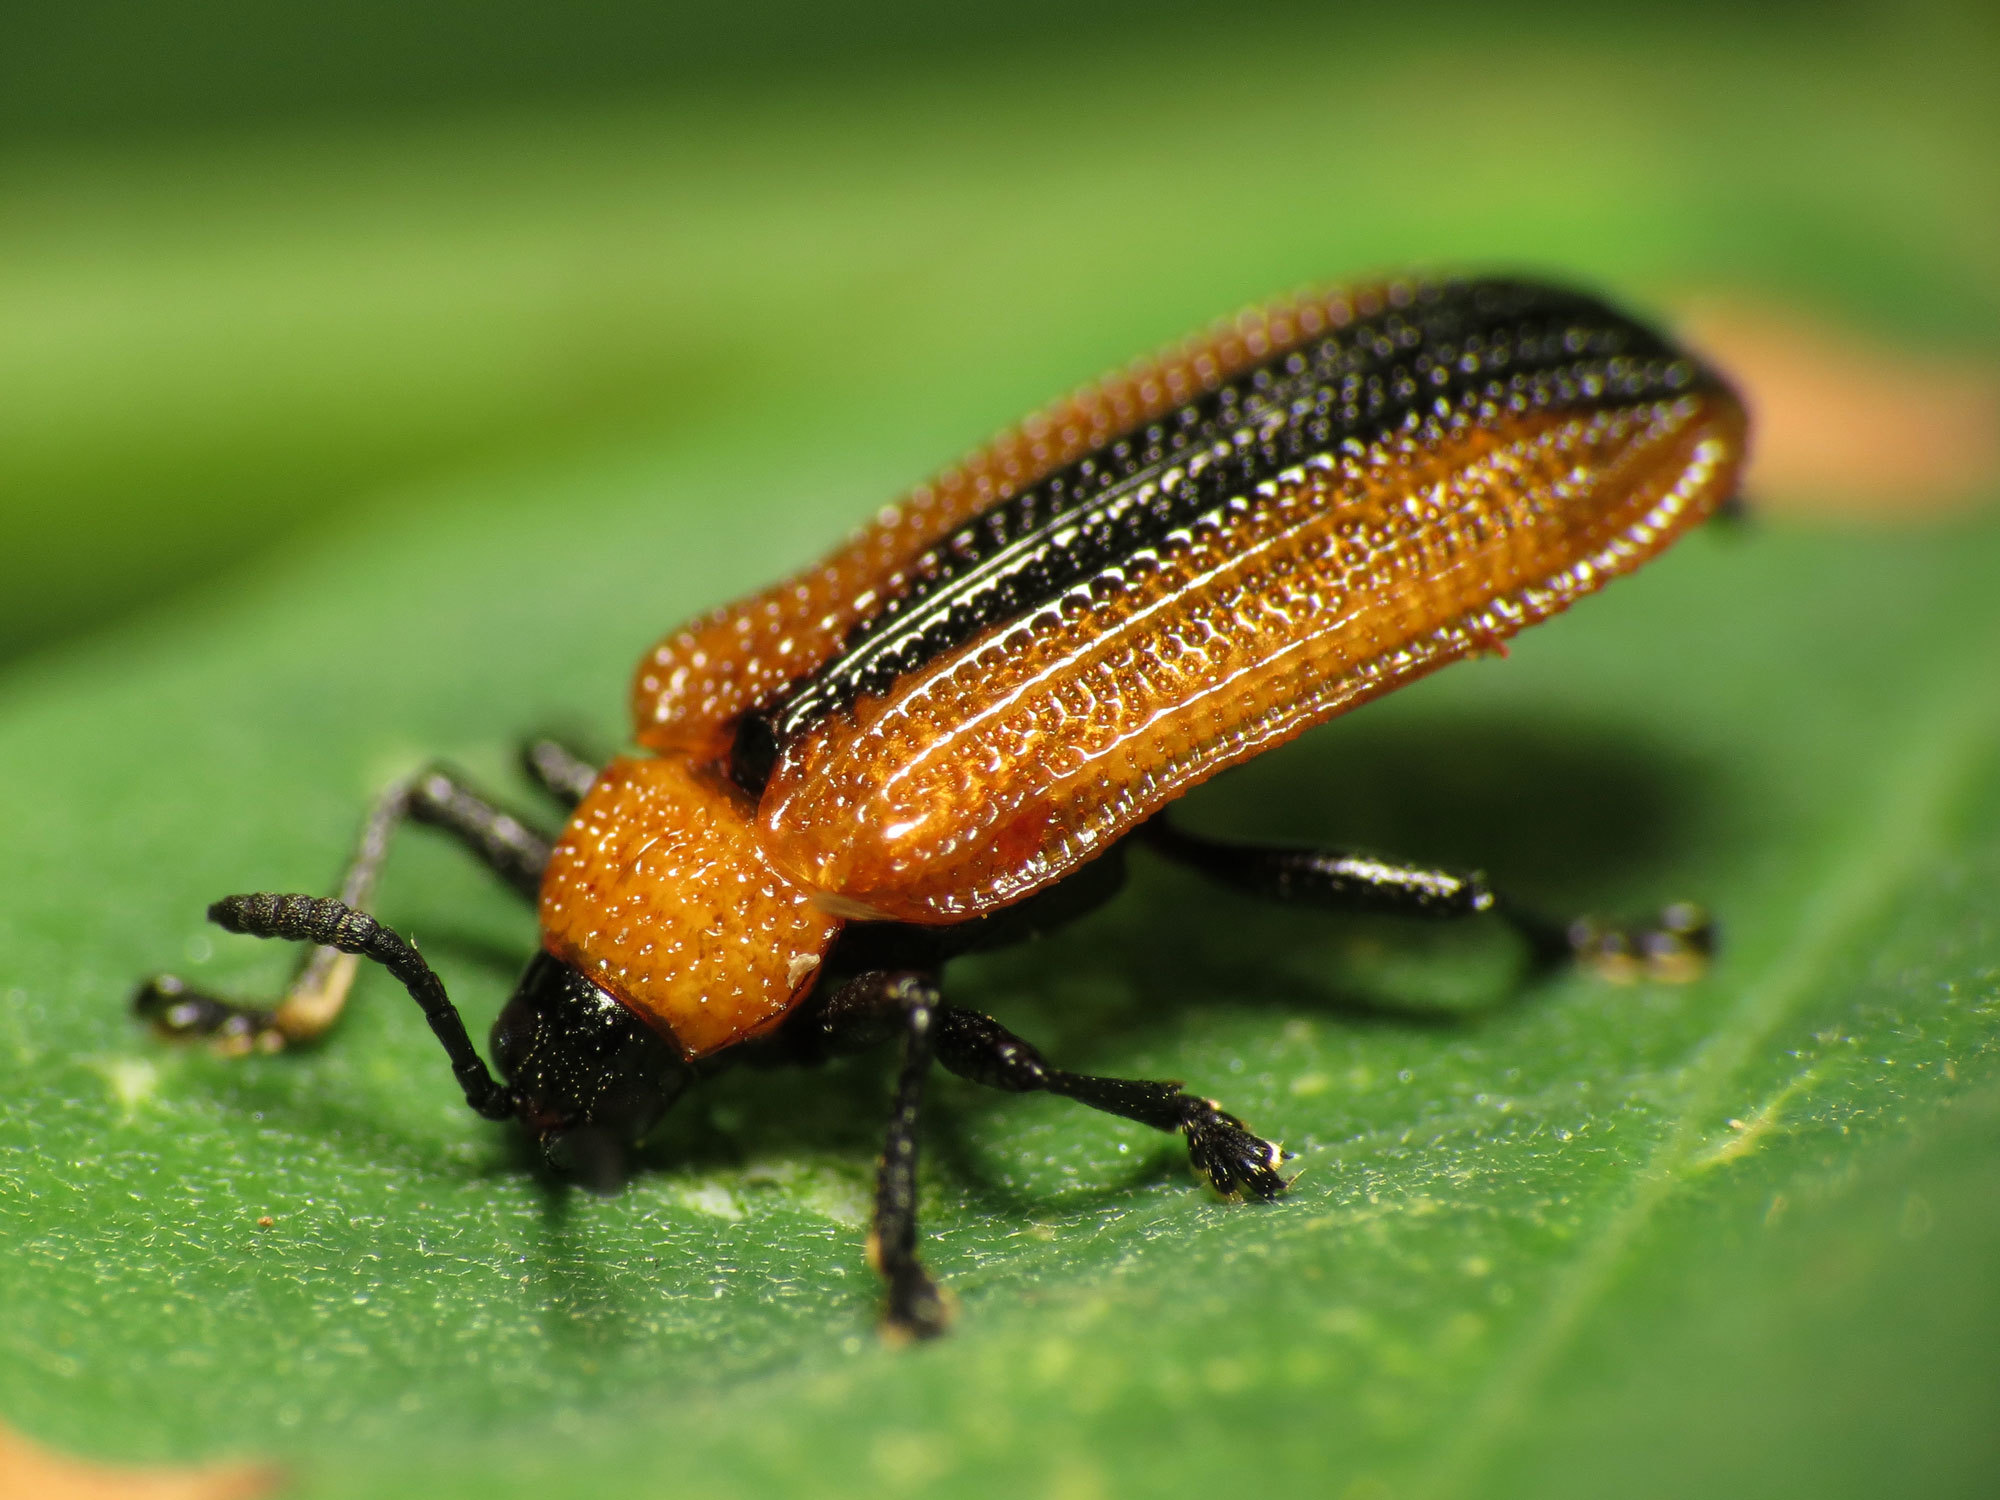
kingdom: Animalia
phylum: Arthropoda
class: Insecta
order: Coleoptera
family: Chrysomelidae
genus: Odontota
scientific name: Odontota dorsalis
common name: Locust leaf-miner beetle
